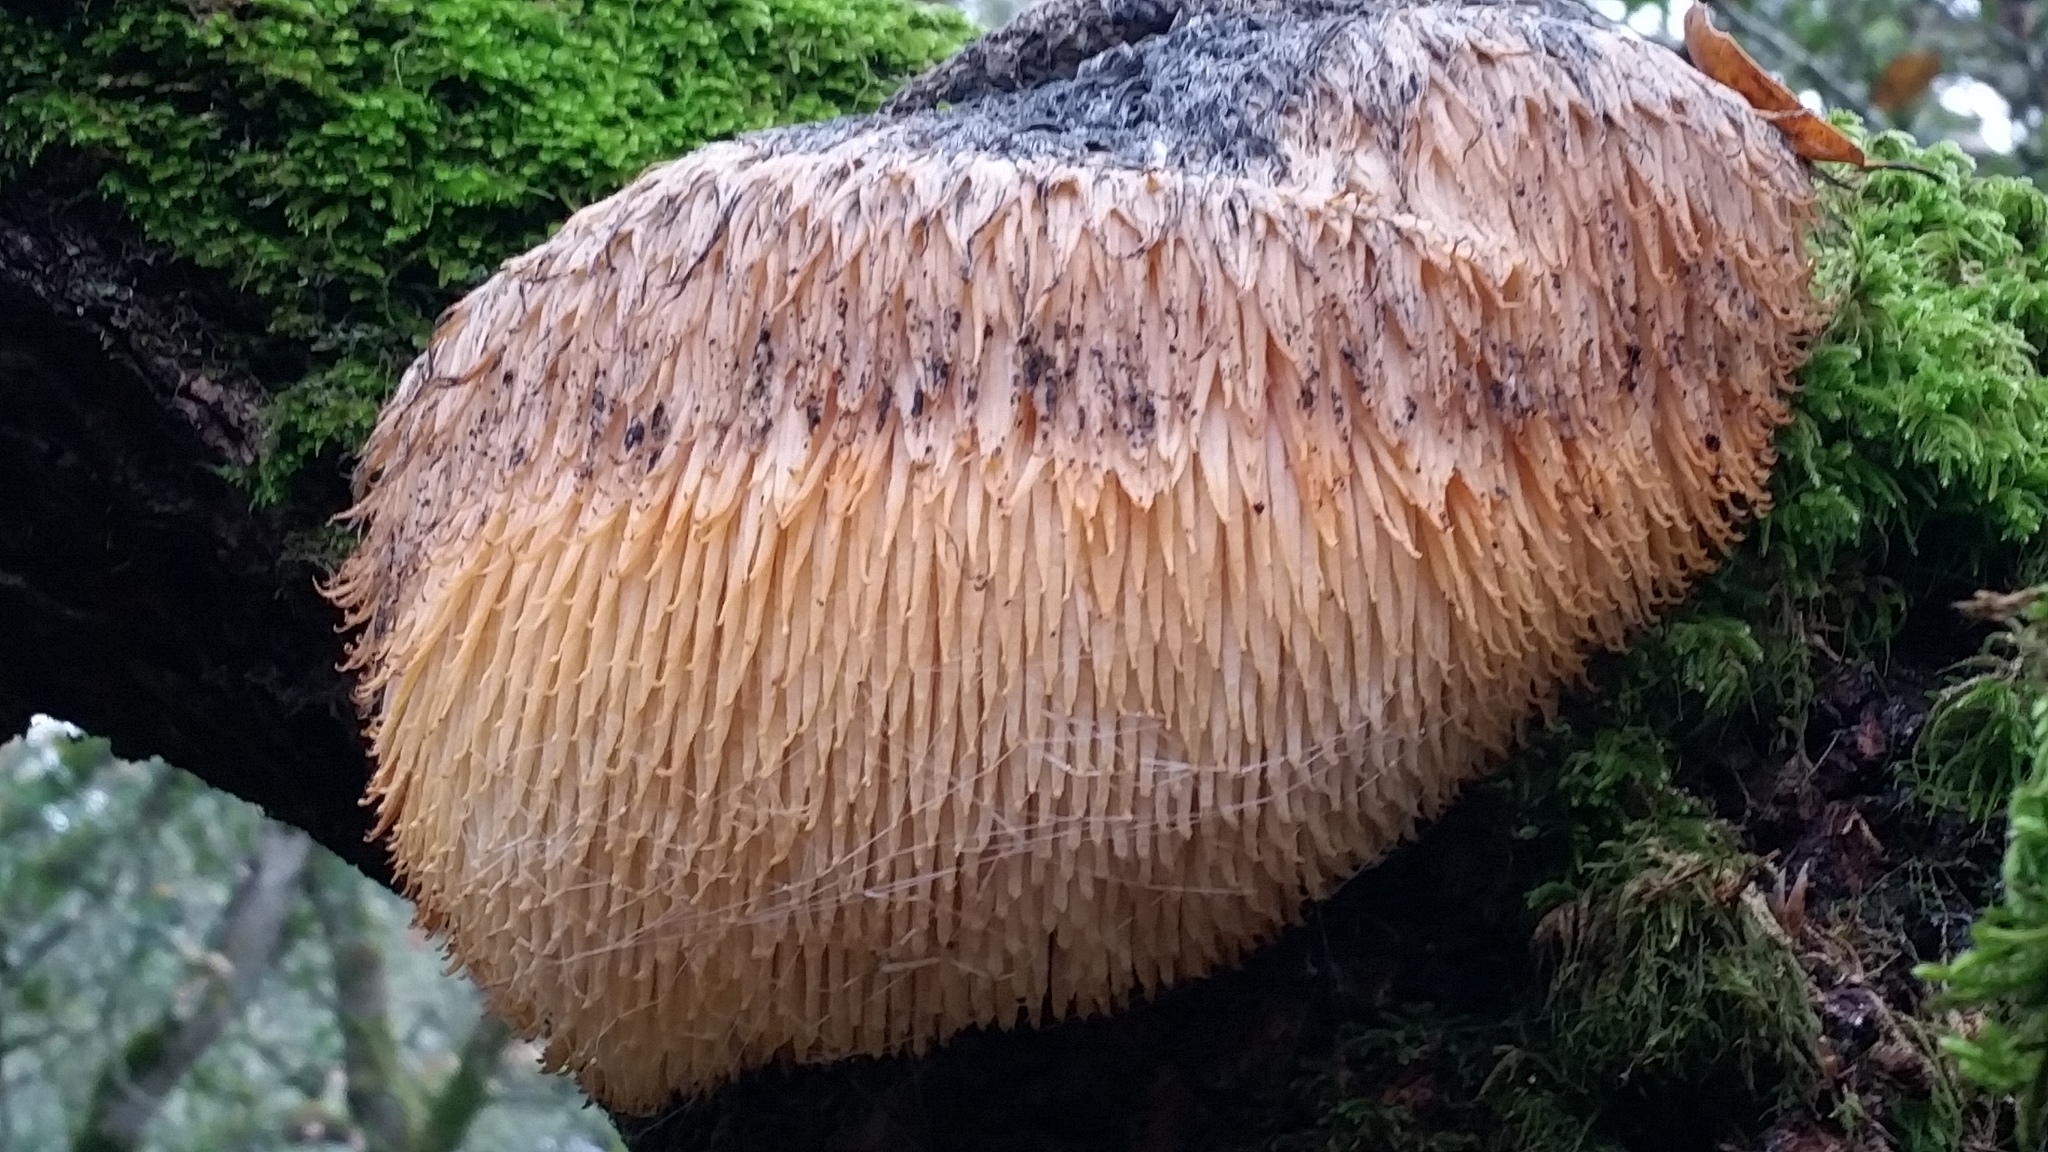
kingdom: Fungi
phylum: Basidiomycota
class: Agaricomycetes
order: Russulales
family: Hericiaceae
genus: Hericium
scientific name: Hericium erinaceus
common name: Bearded tooth
